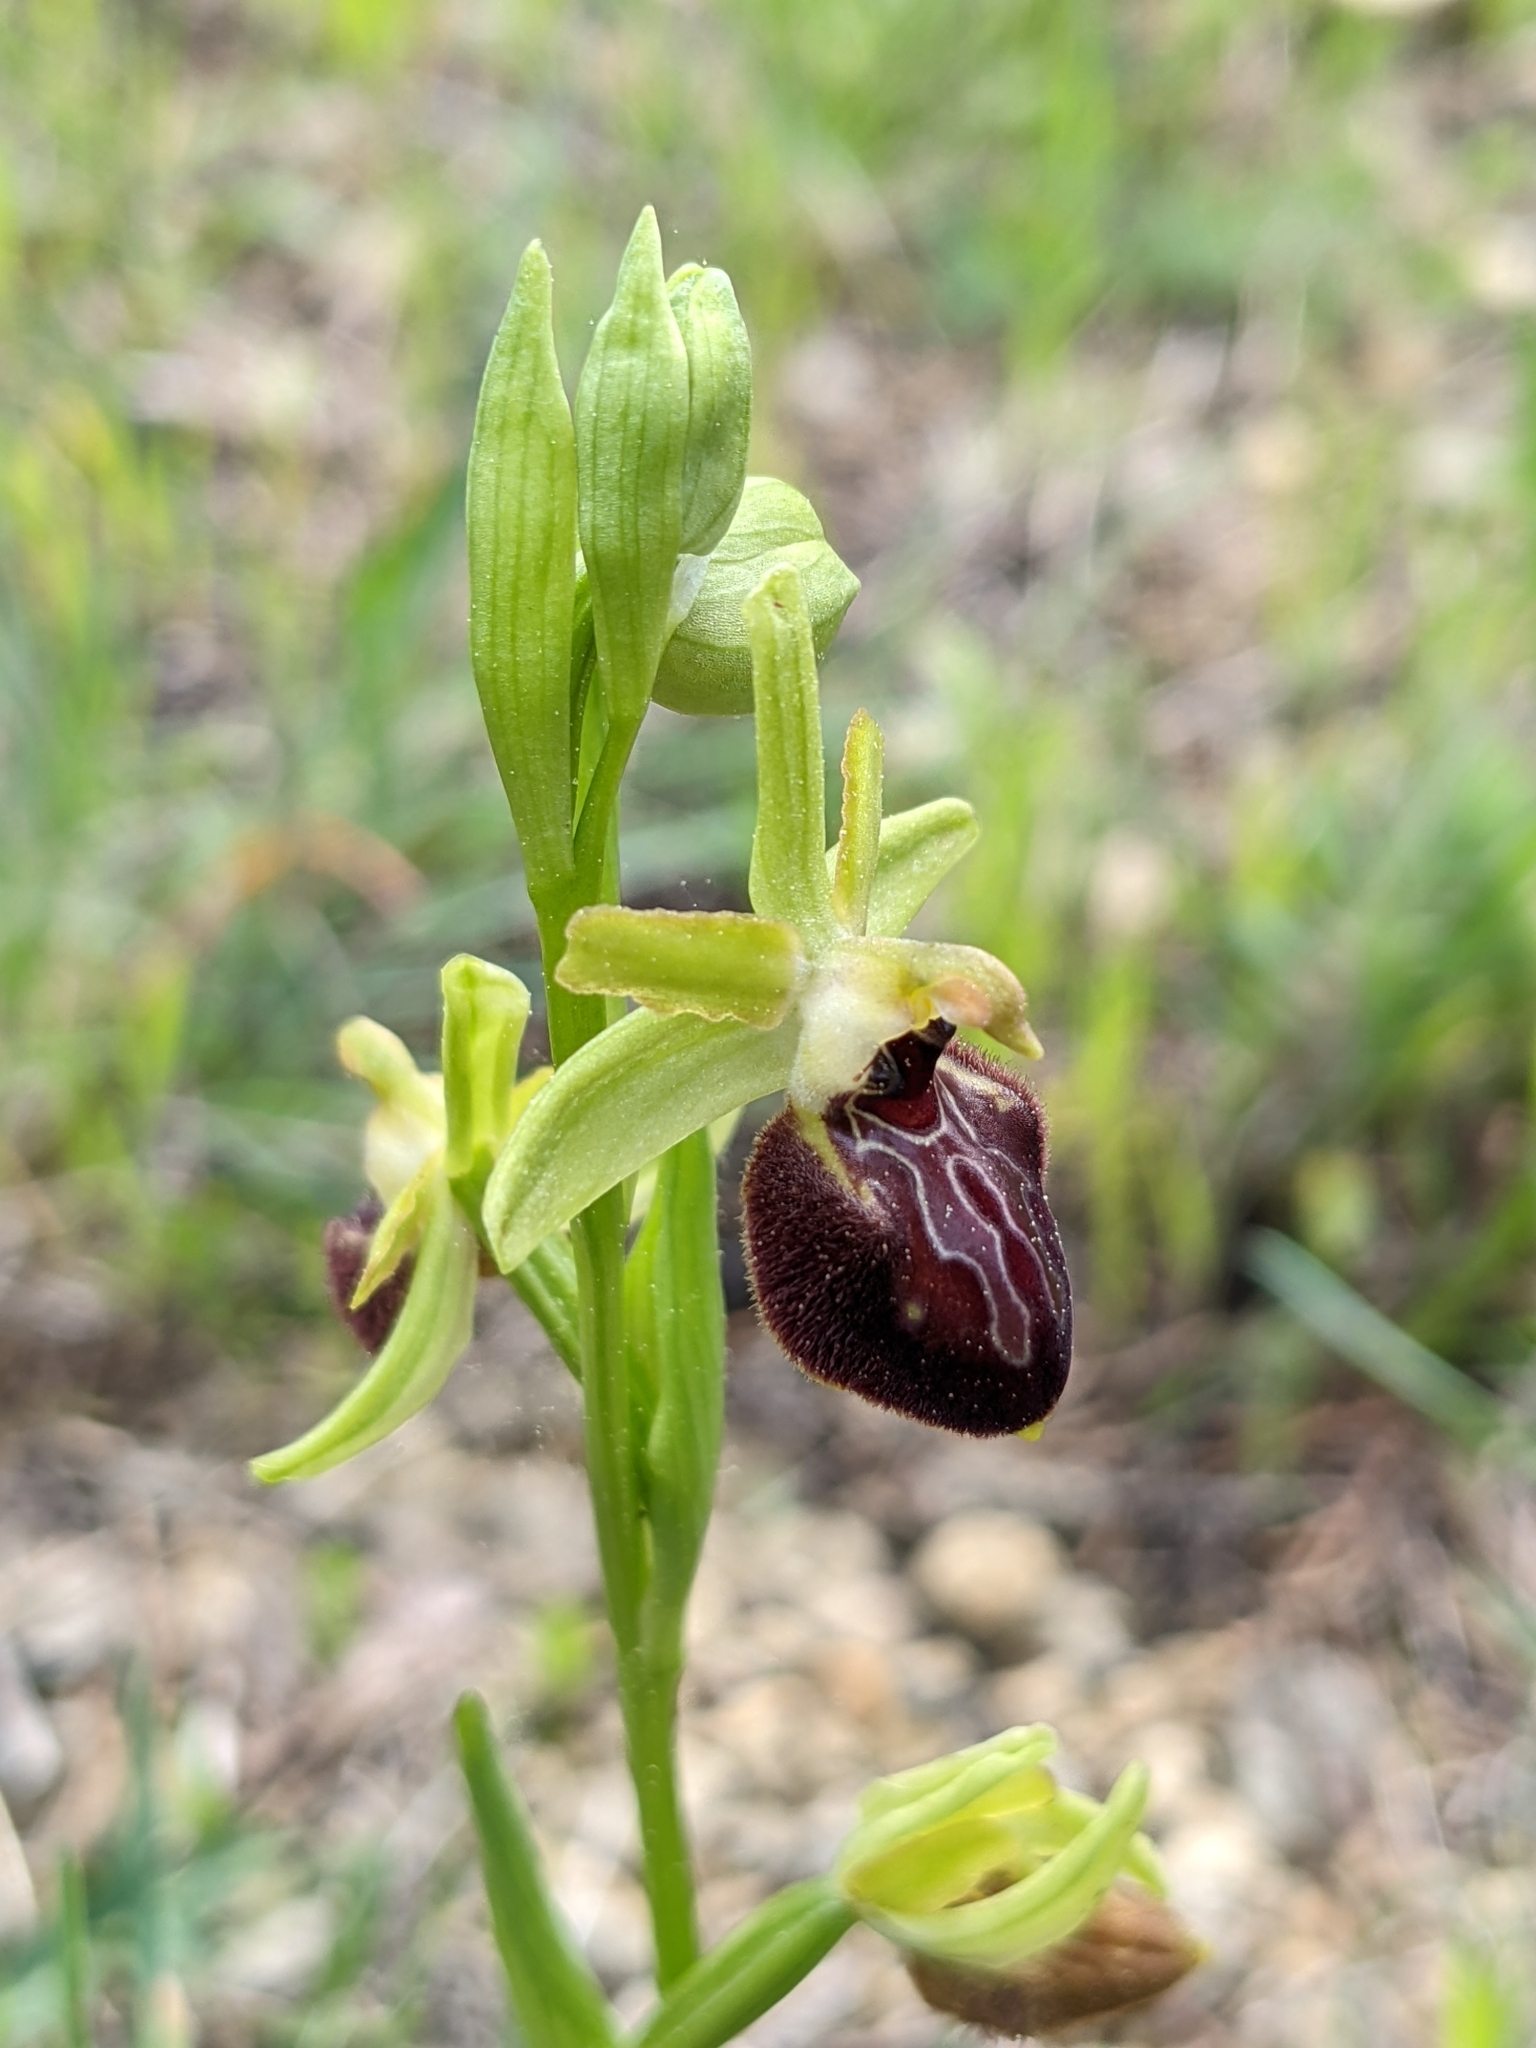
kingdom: Plantae
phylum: Tracheophyta
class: Liliopsida
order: Asparagales
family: Orchidaceae
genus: Ophrys
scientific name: Ophrys arachnitiformis
